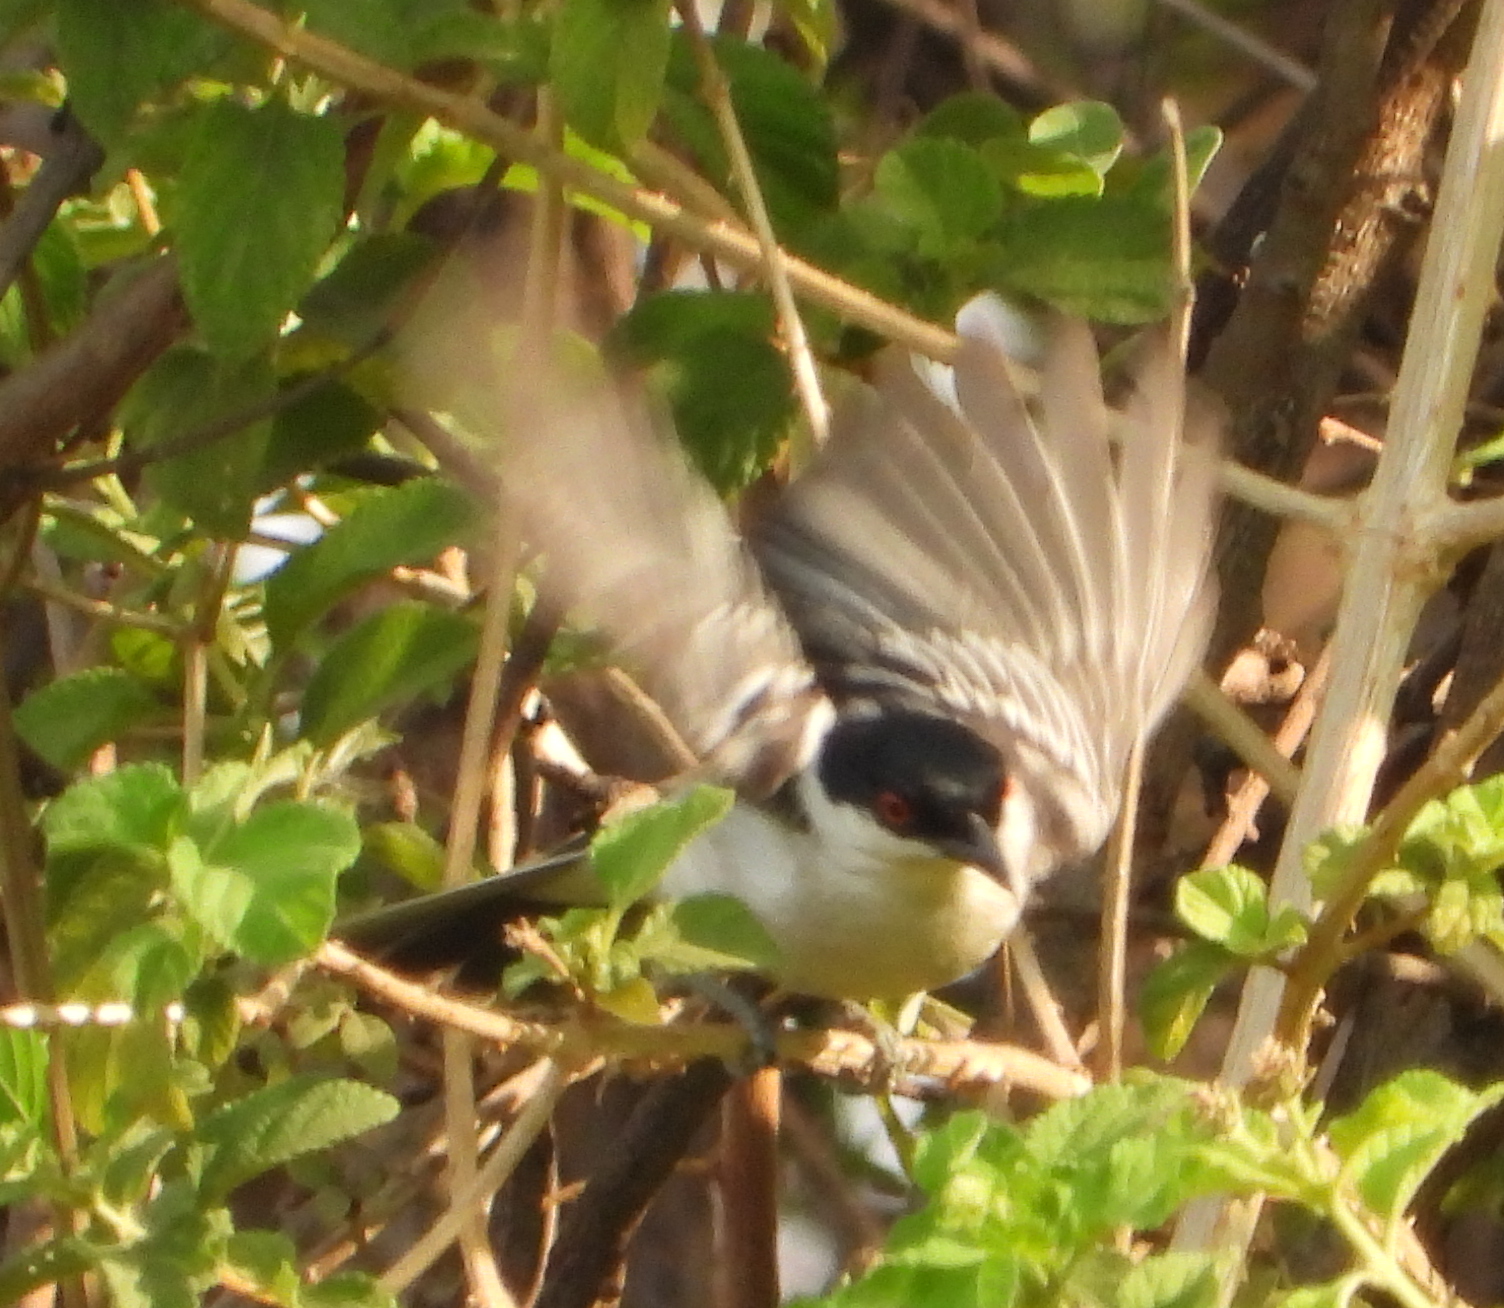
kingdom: Animalia
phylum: Chordata
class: Aves
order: Passeriformes
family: Malaconotidae
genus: Dryoscopus
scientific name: Dryoscopus cubla
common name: Black-backed puffback
